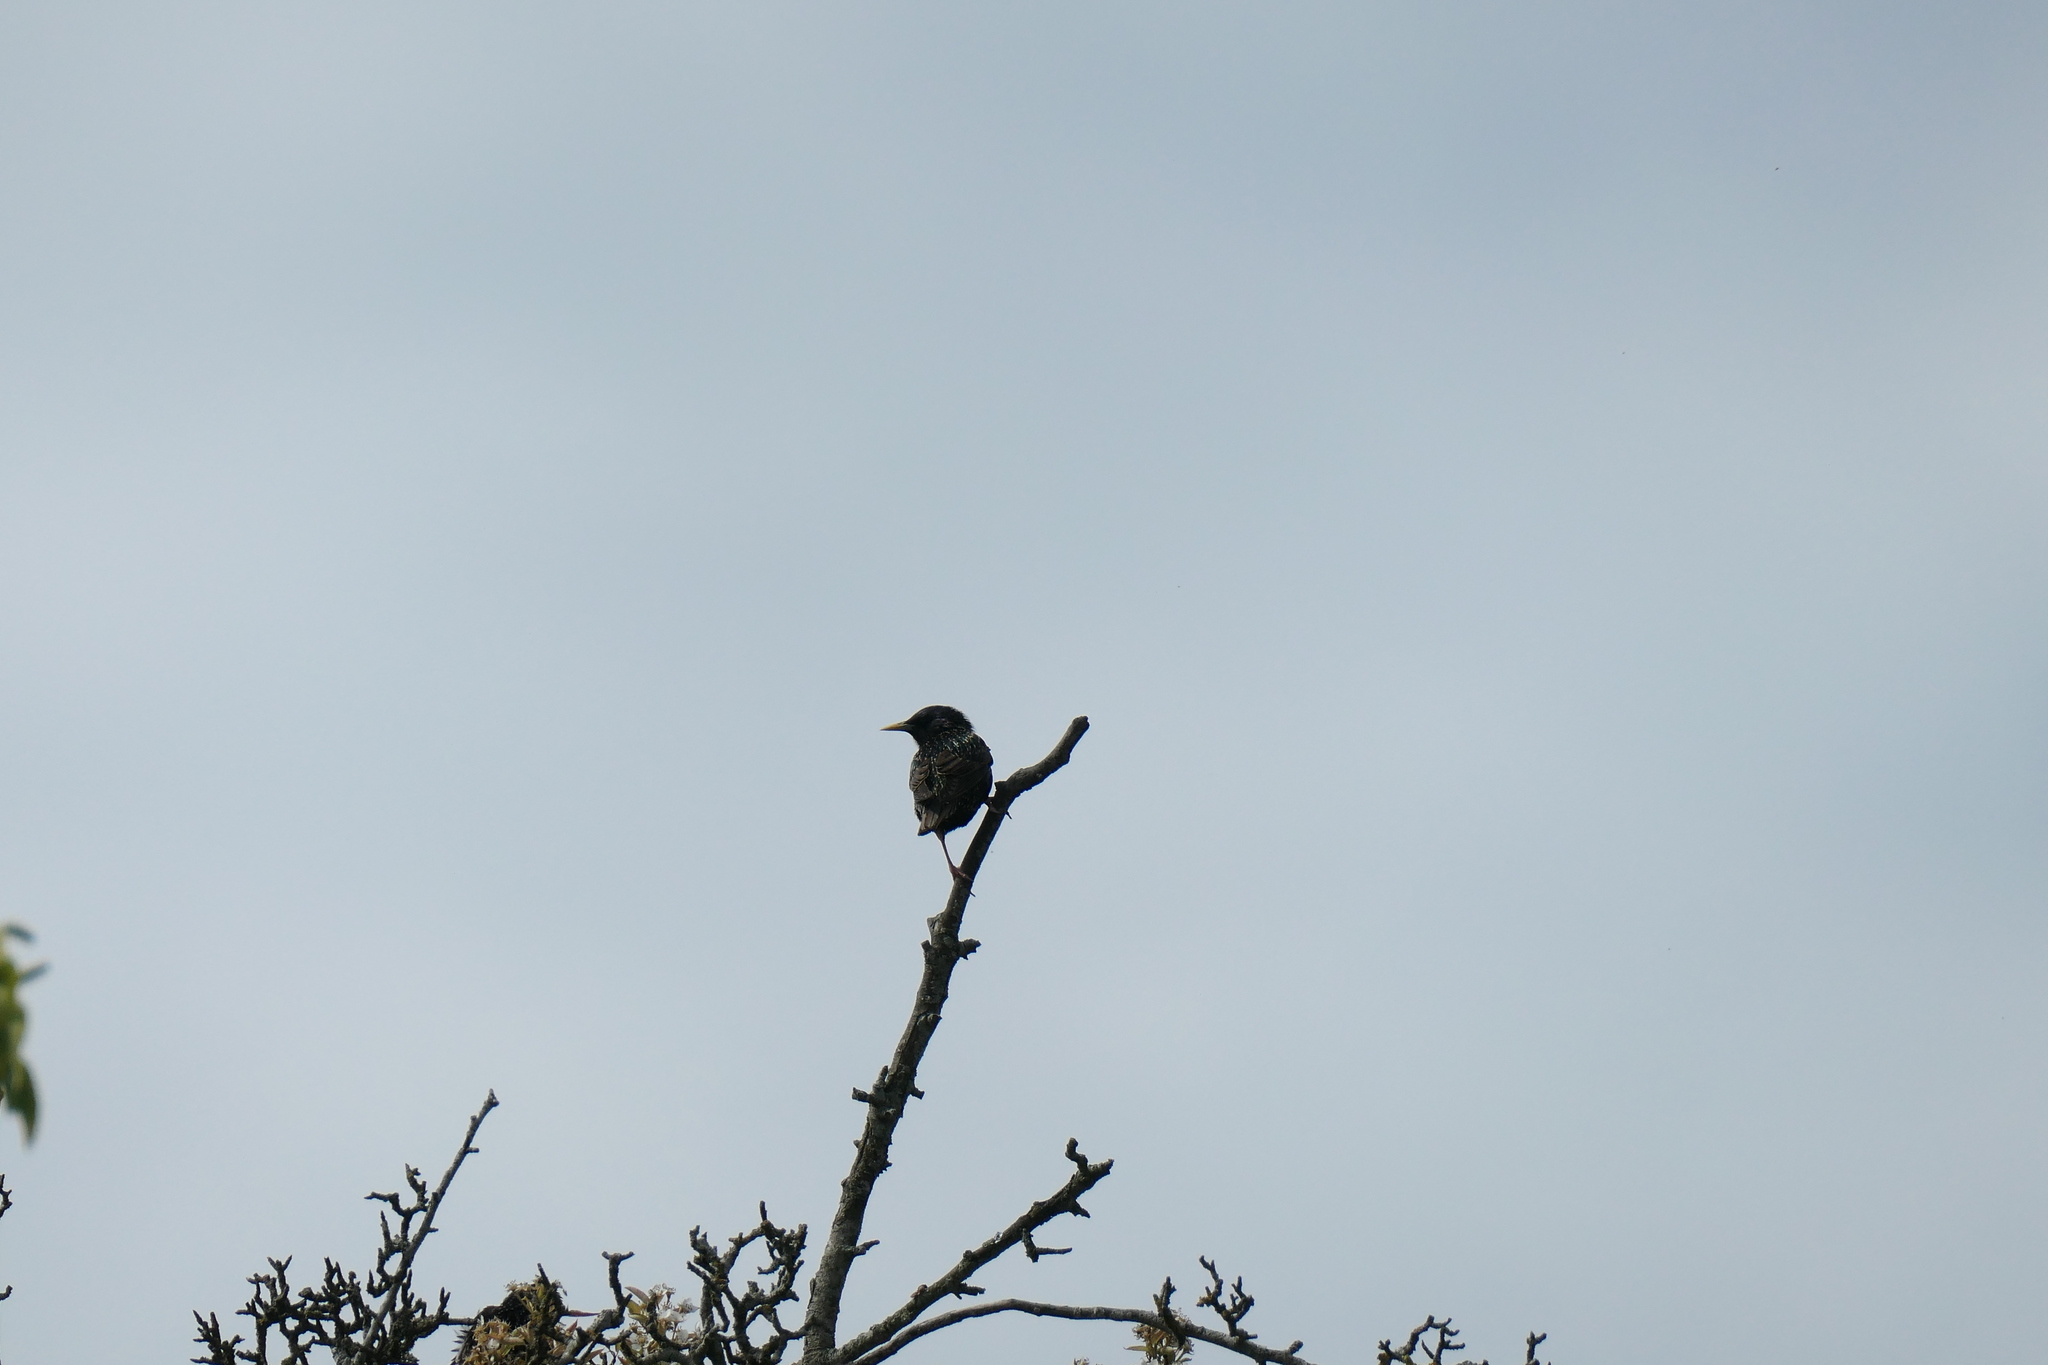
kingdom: Animalia
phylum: Chordata
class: Aves
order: Passeriformes
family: Sturnidae
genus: Sturnus
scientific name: Sturnus vulgaris
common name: Common starling
